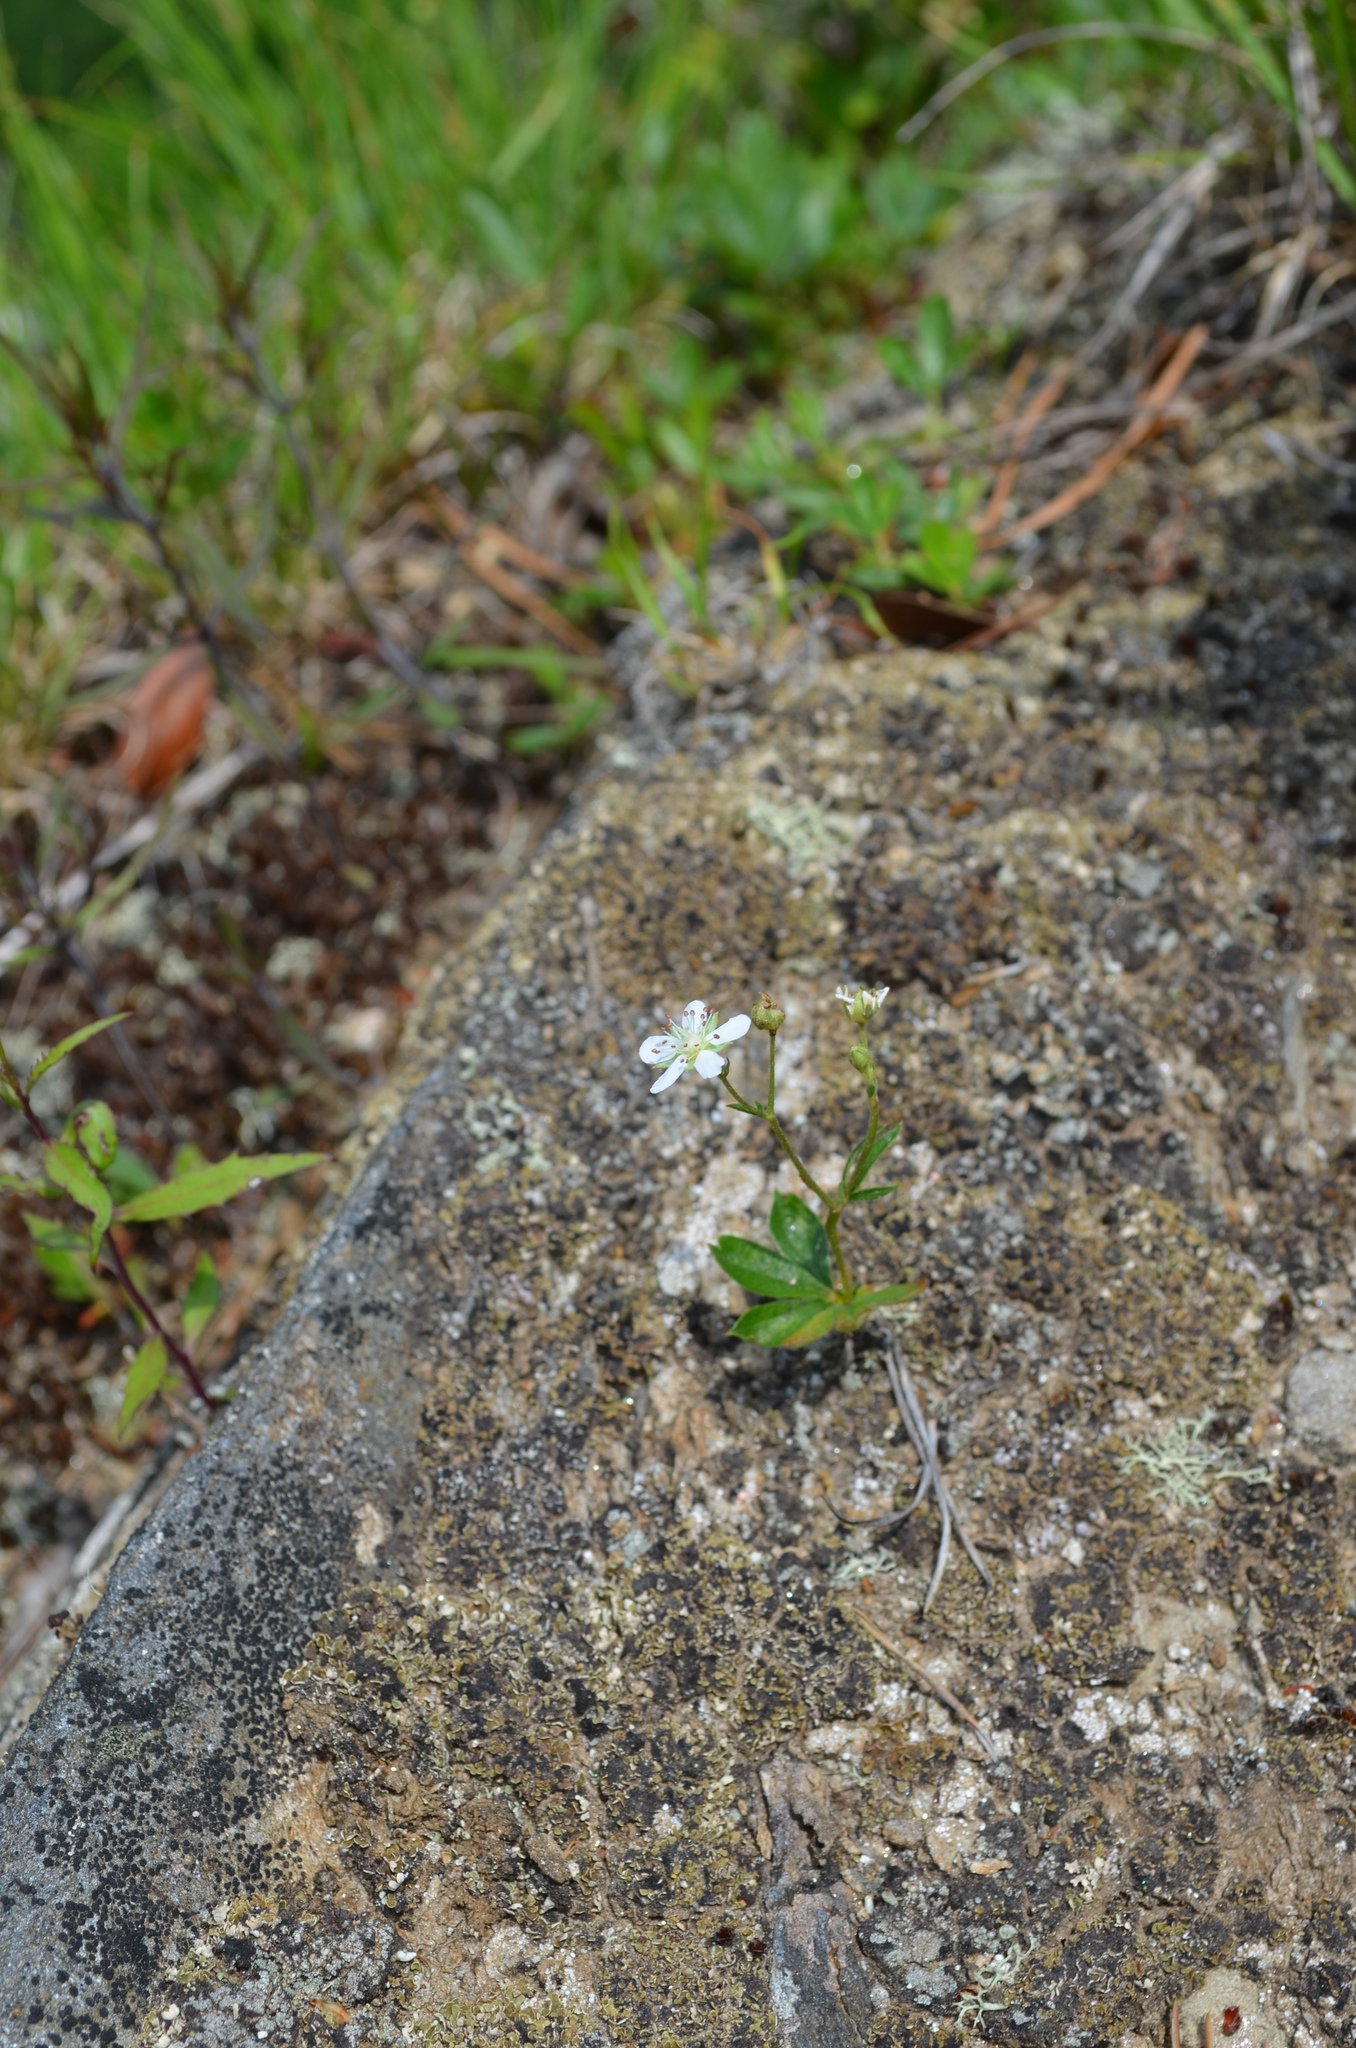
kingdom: Plantae
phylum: Tracheophyta
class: Magnoliopsida
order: Rosales
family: Rosaceae
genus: Sibbaldia
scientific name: Sibbaldia tridentata
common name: Three-toothed cinquefoil
